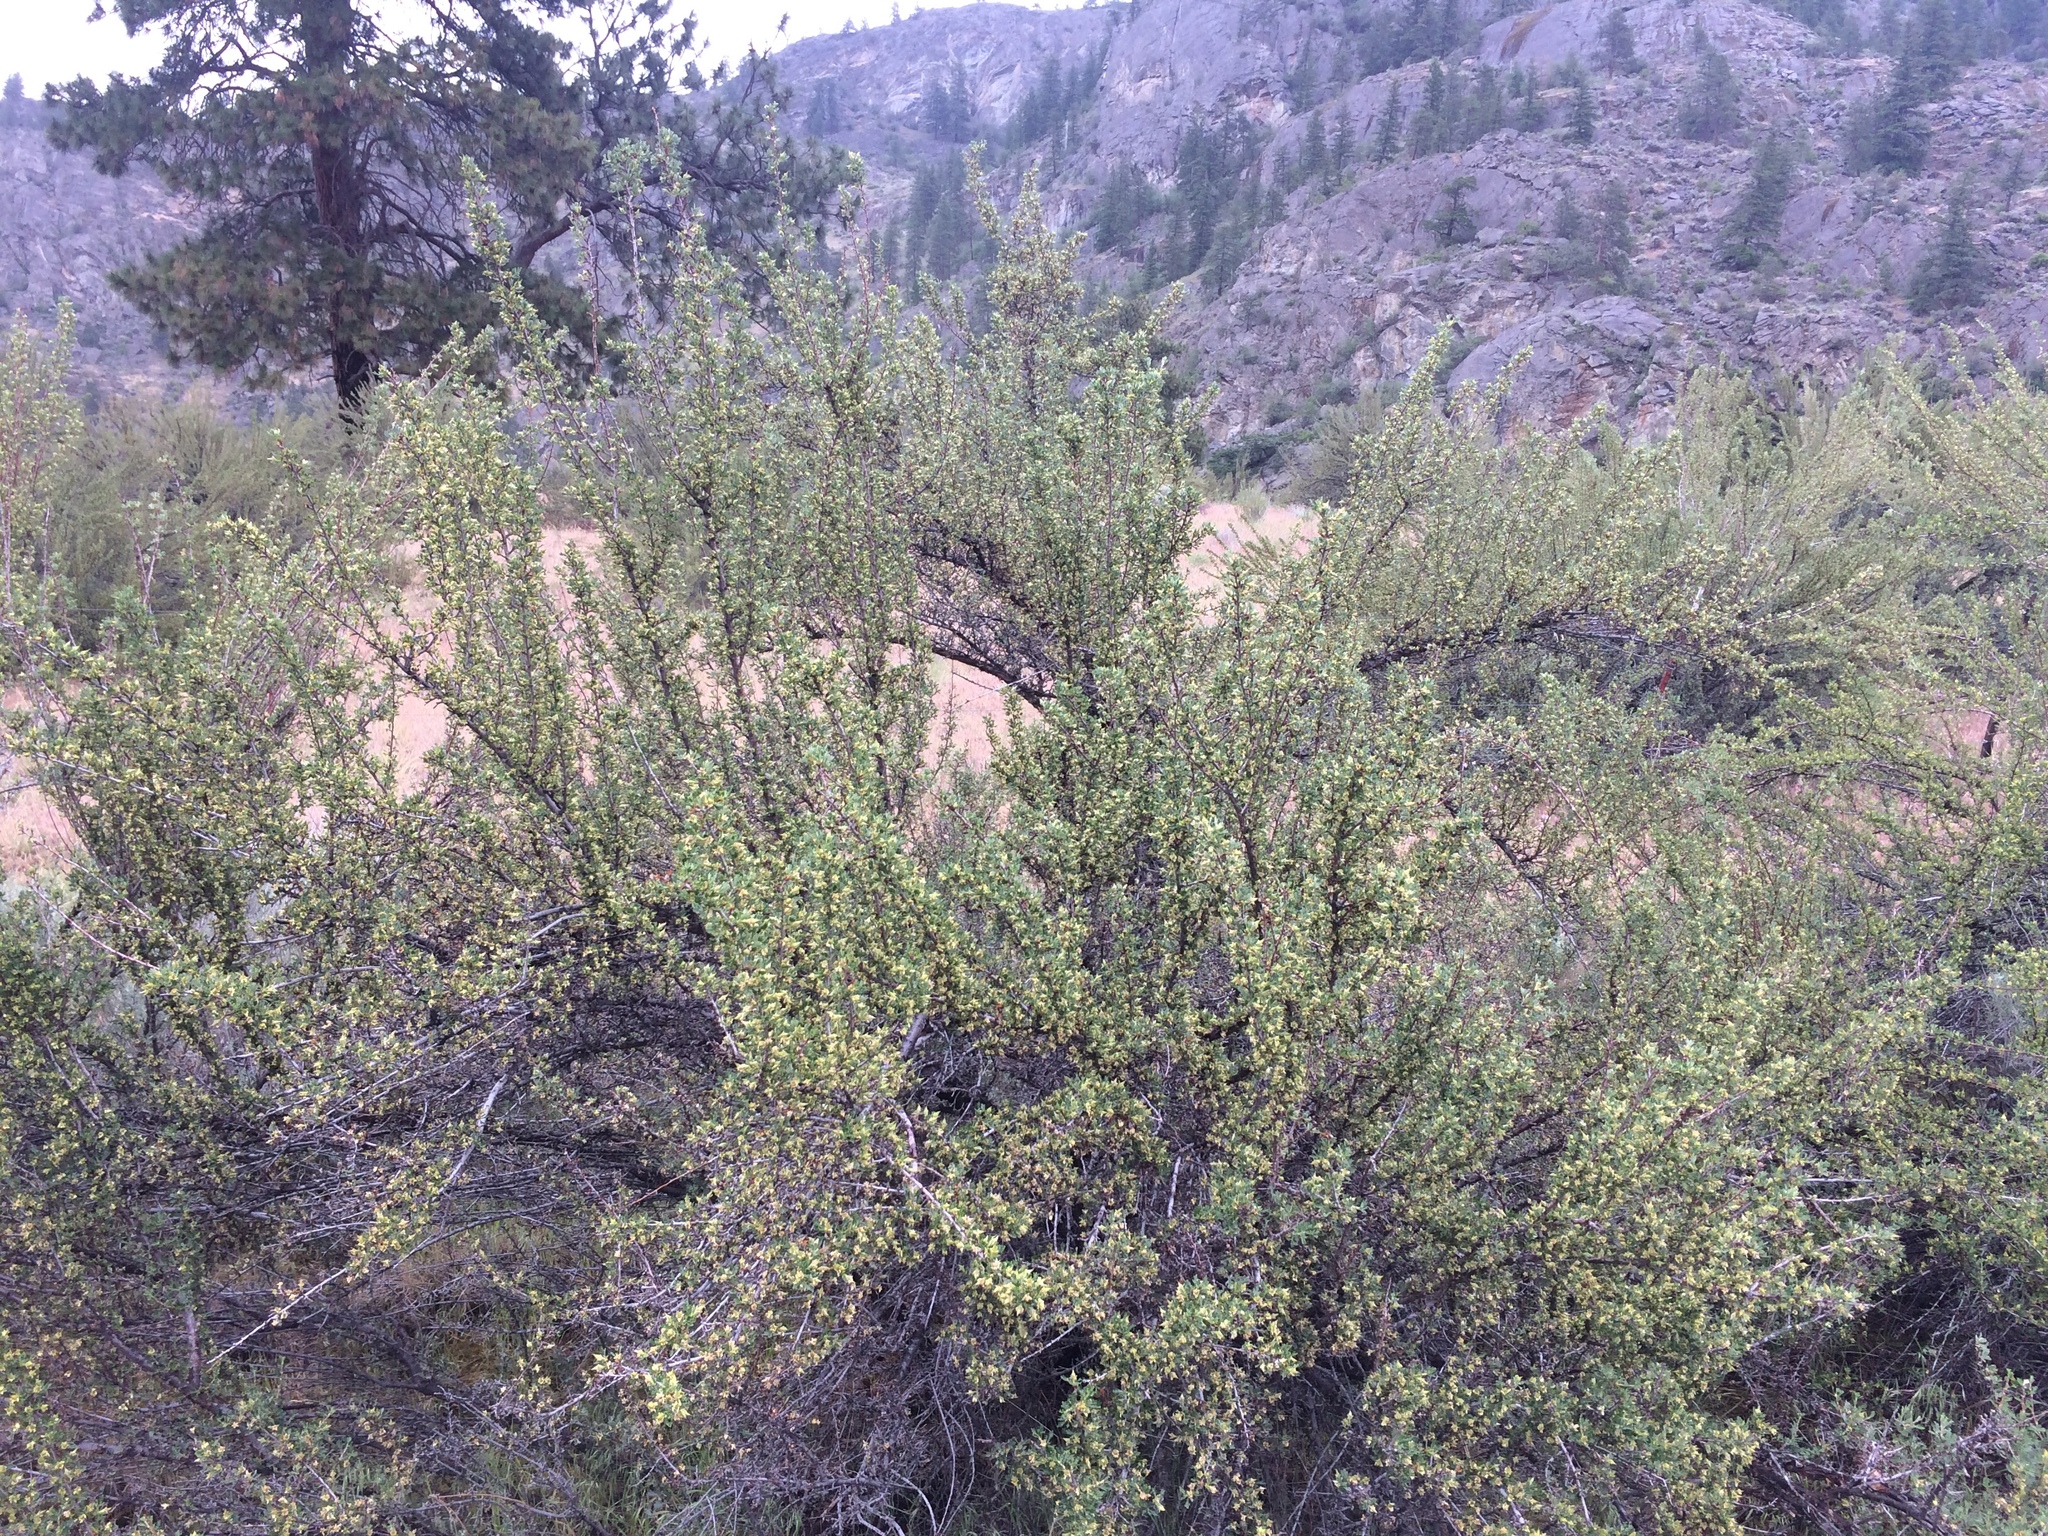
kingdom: Plantae
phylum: Tracheophyta
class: Magnoliopsida
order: Rosales
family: Rosaceae
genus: Purshia
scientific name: Purshia tridentata
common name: Antelope bitterbrush
